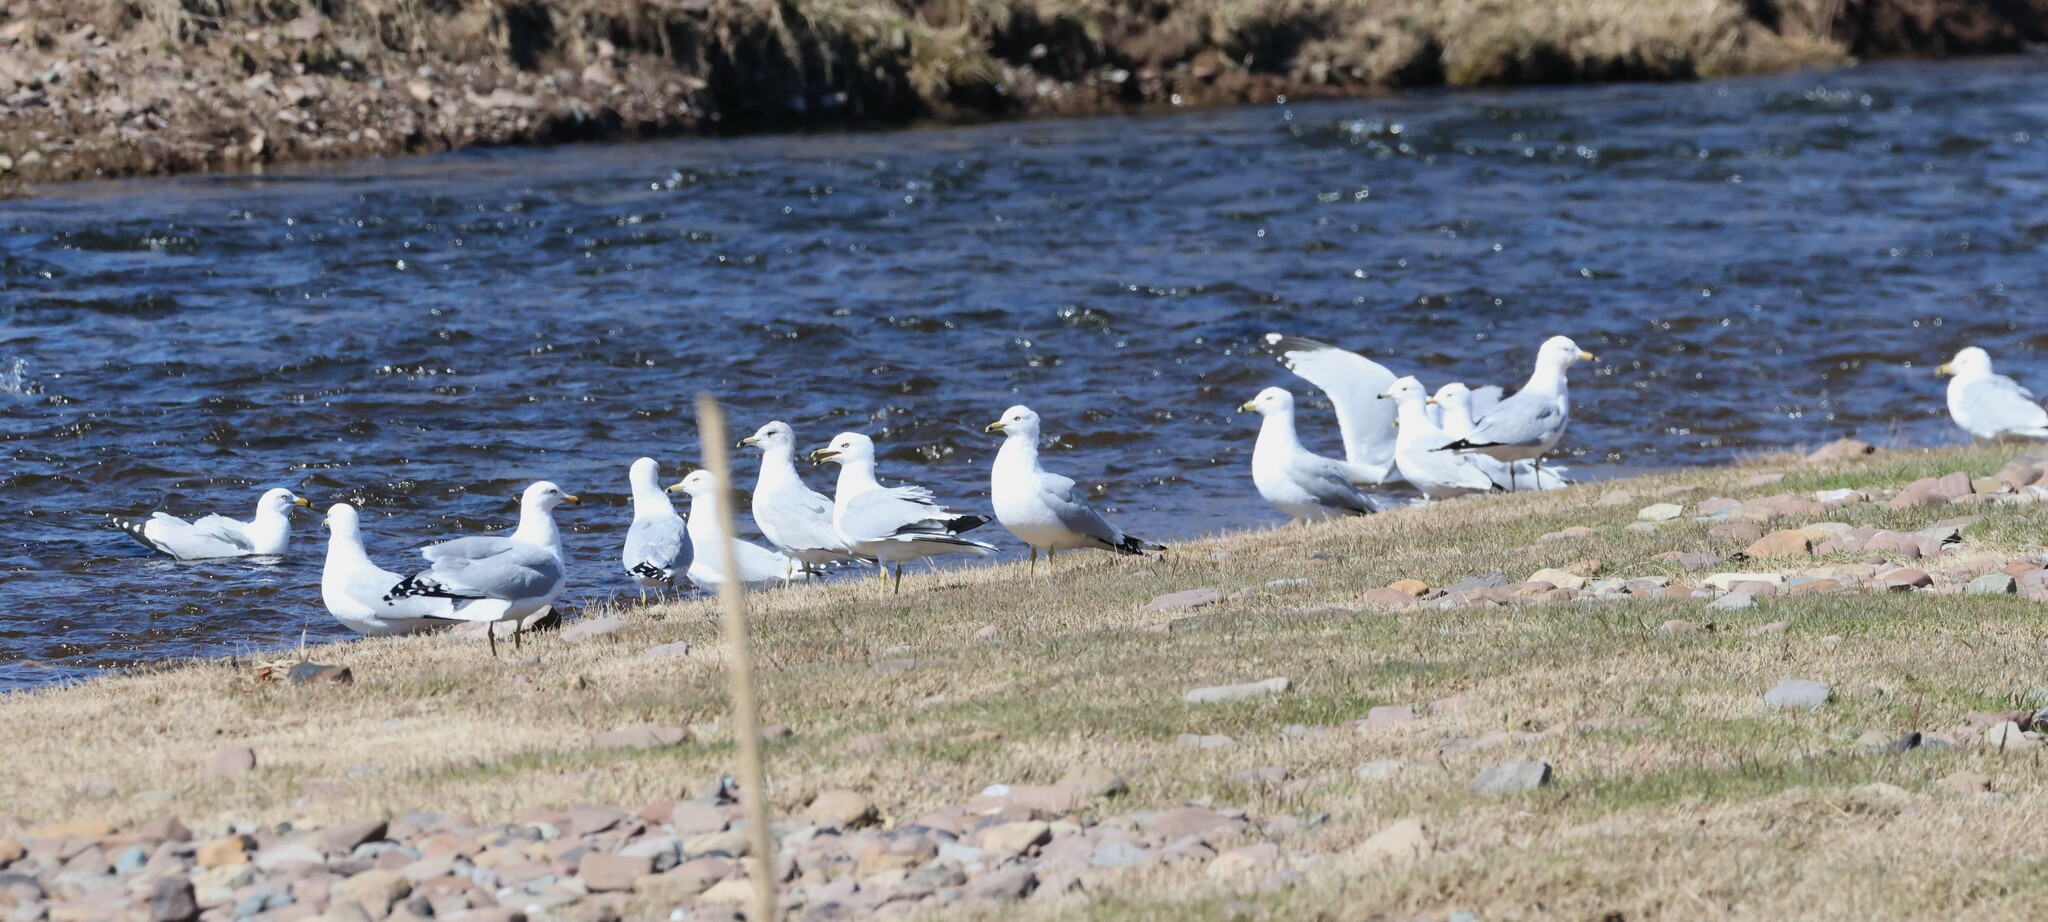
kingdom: Animalia
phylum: Chordata
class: Aves
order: Charadriiformes
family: Laridae
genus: Larus
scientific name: Larus delawarensis
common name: Ring-billed gull
